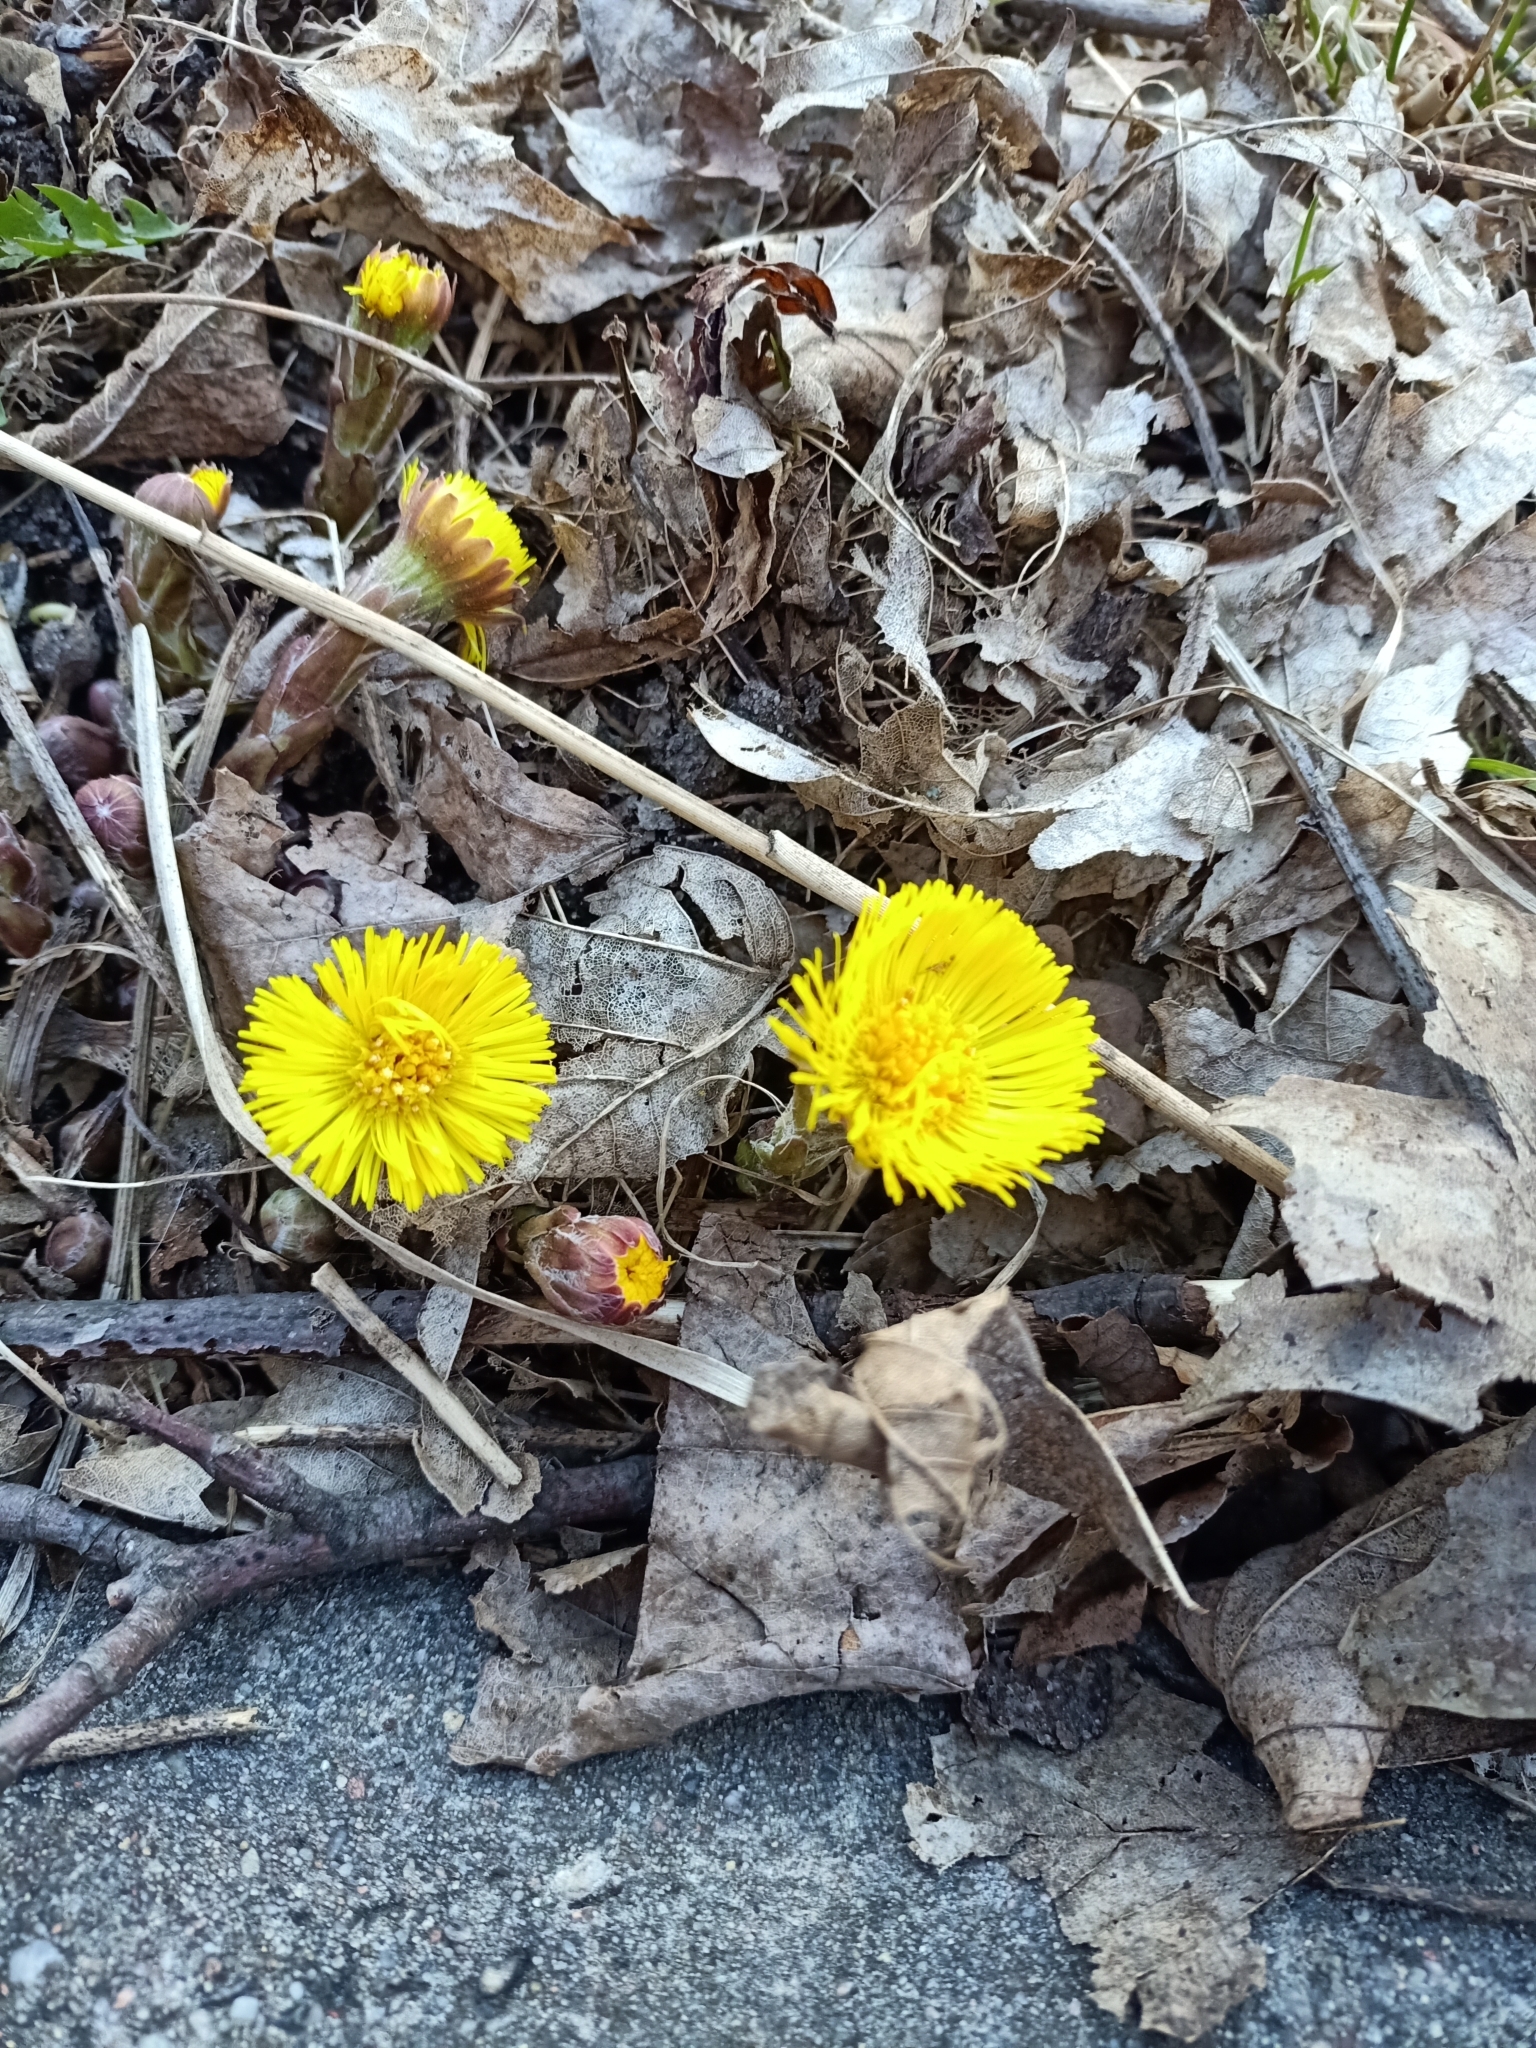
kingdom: Plantae
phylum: Tracheophyta
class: Magnoliopsida
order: Asterales
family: Asteraceae
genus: Tussilago
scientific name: Tussilago farfara
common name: Coltsfoot
